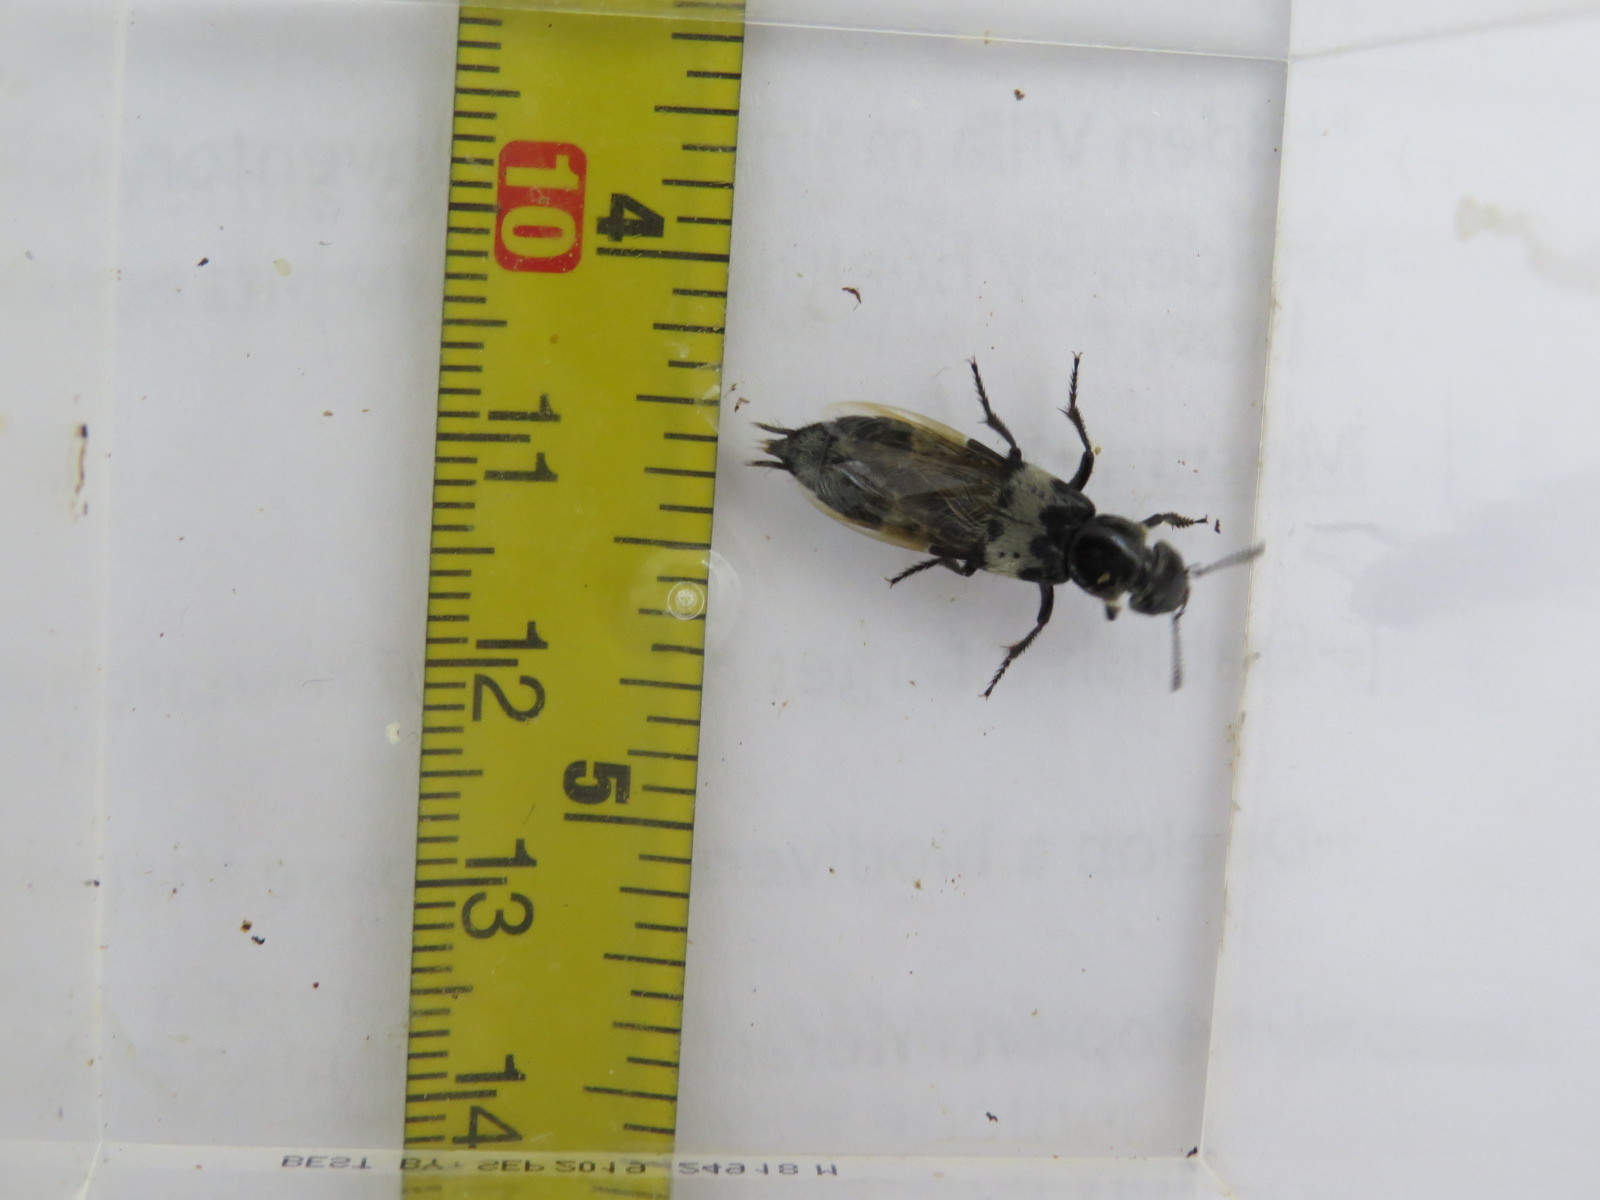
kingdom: Animalia
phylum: Arthropoda
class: Insecta
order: Coleoptera
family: Staphylinidae
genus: Creophilus
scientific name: Creophilus maxillosus
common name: Hairy rove beetle
